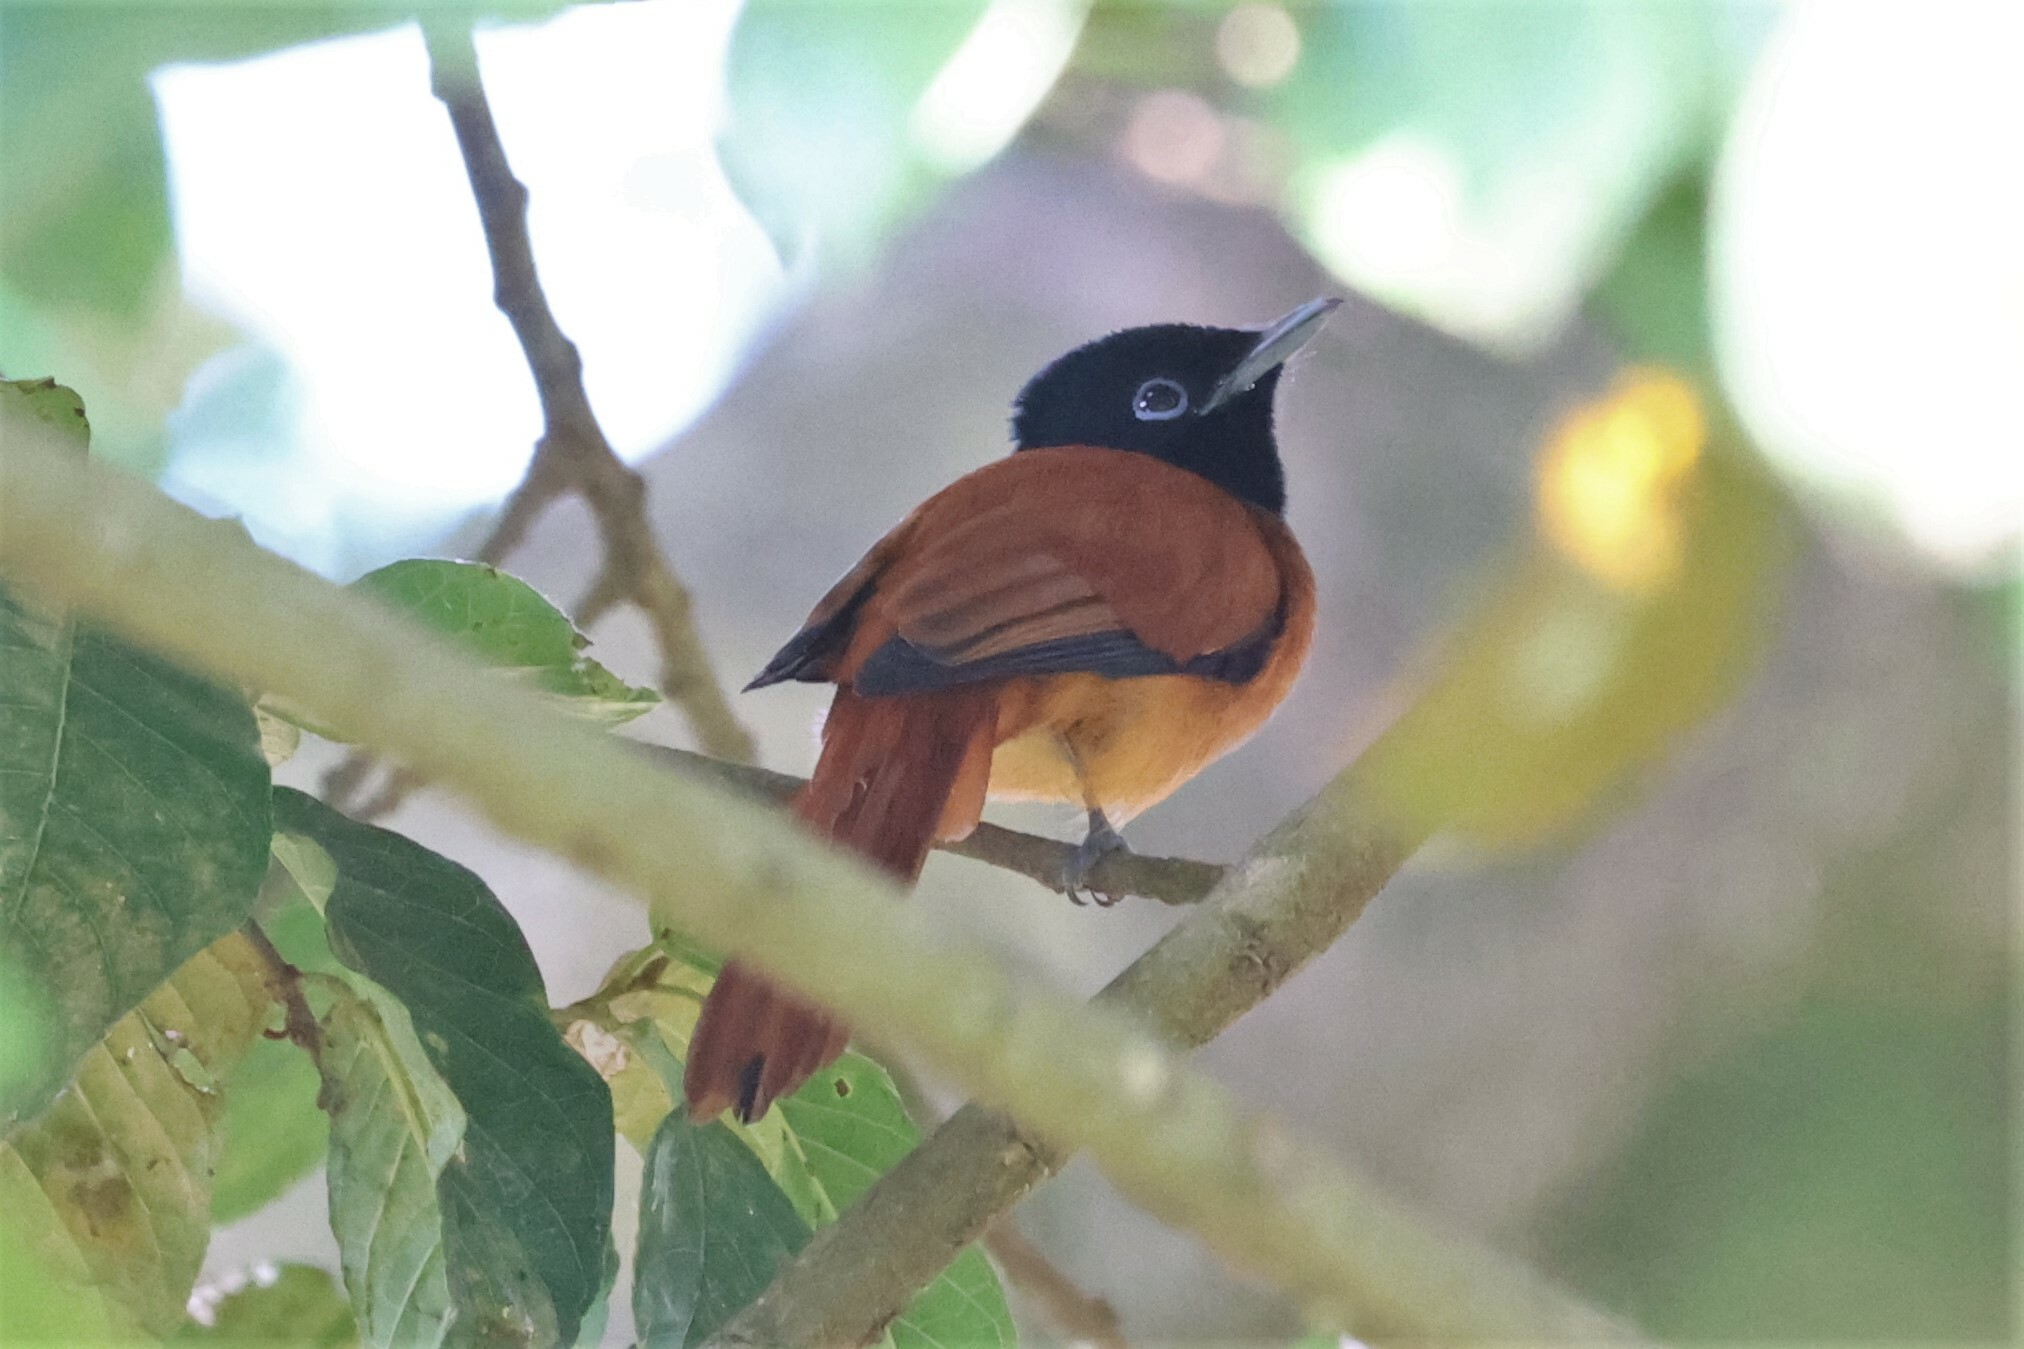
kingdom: Animalia
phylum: Chordata
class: Aves
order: Passeriformes
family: Monarchidae
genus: Terpsiphone
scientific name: Terpsiphone rufiventer
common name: Red-bellied paradise flycatcher
